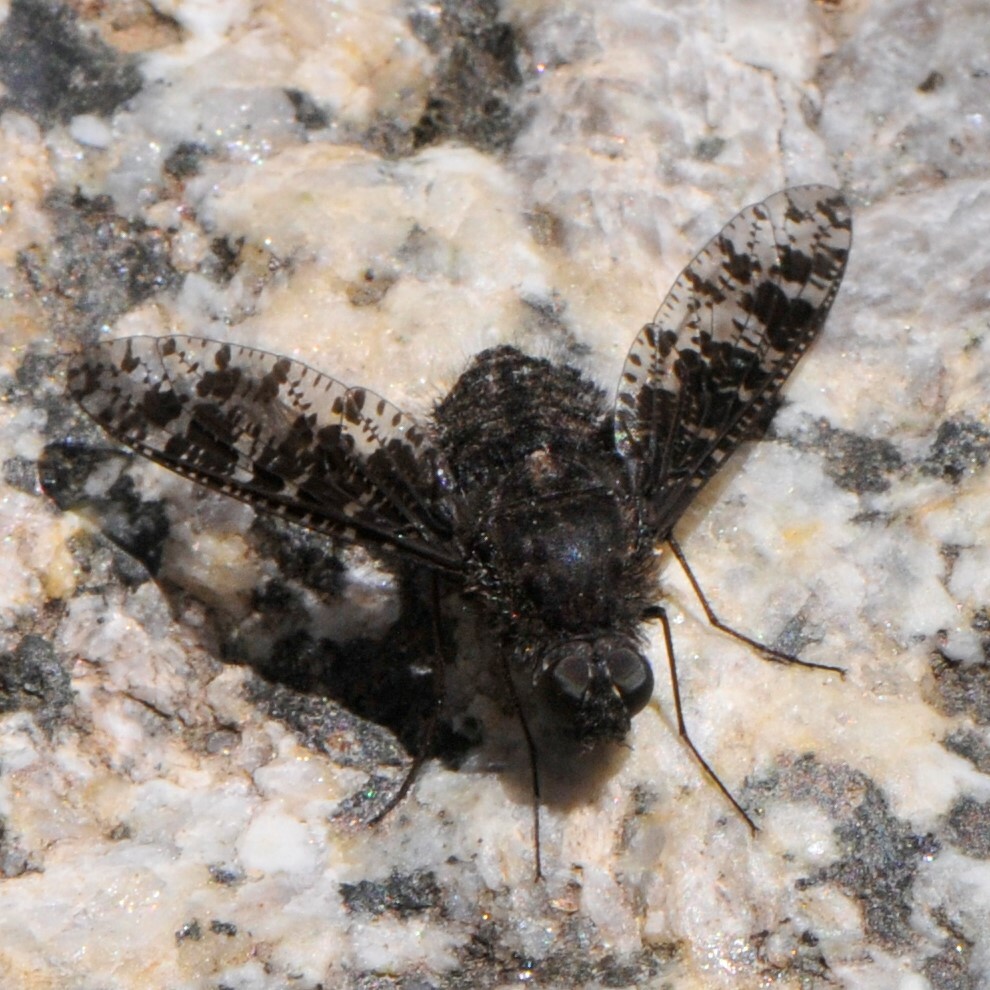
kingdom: Animalia
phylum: Arthropoda
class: Insecta
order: Diptera
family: Bombyliidae
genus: Anthrax
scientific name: Anthrax
